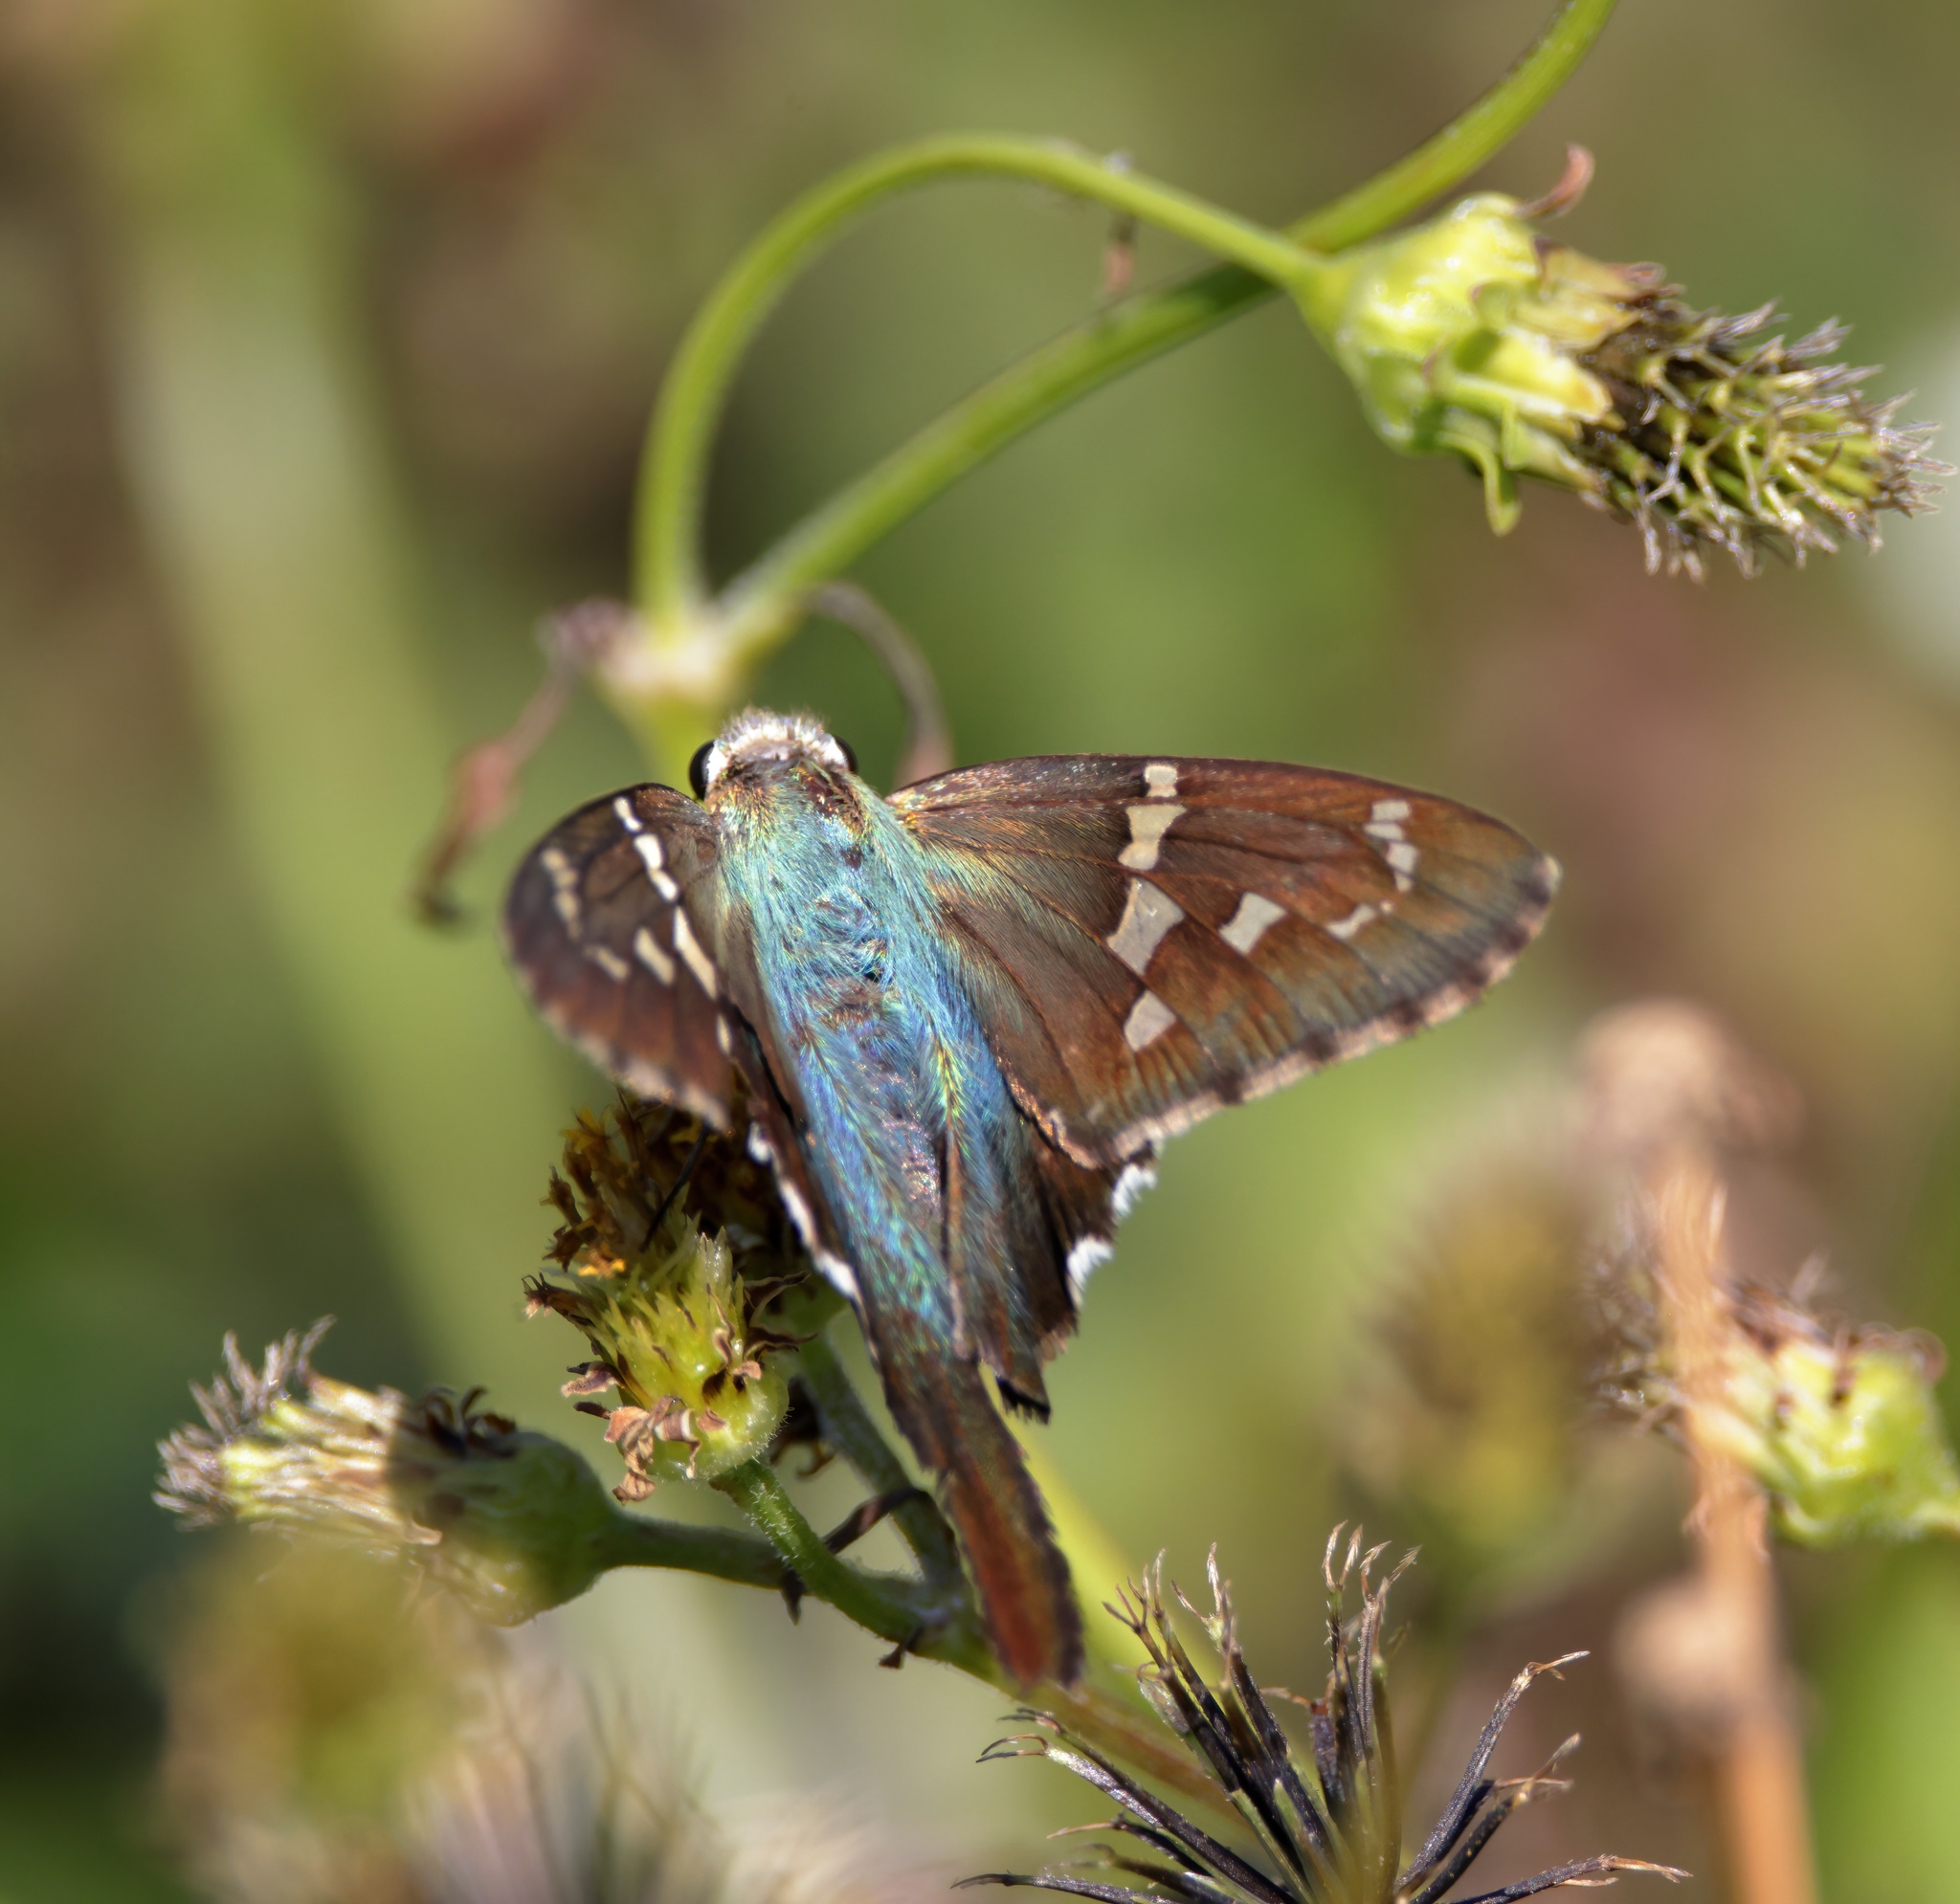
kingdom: Animalia
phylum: Arthropoda
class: Insecta
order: Lepidoptera
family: Hesperiidae
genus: Urbanus
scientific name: Urbanus proteus
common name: Long-tailed skipper
